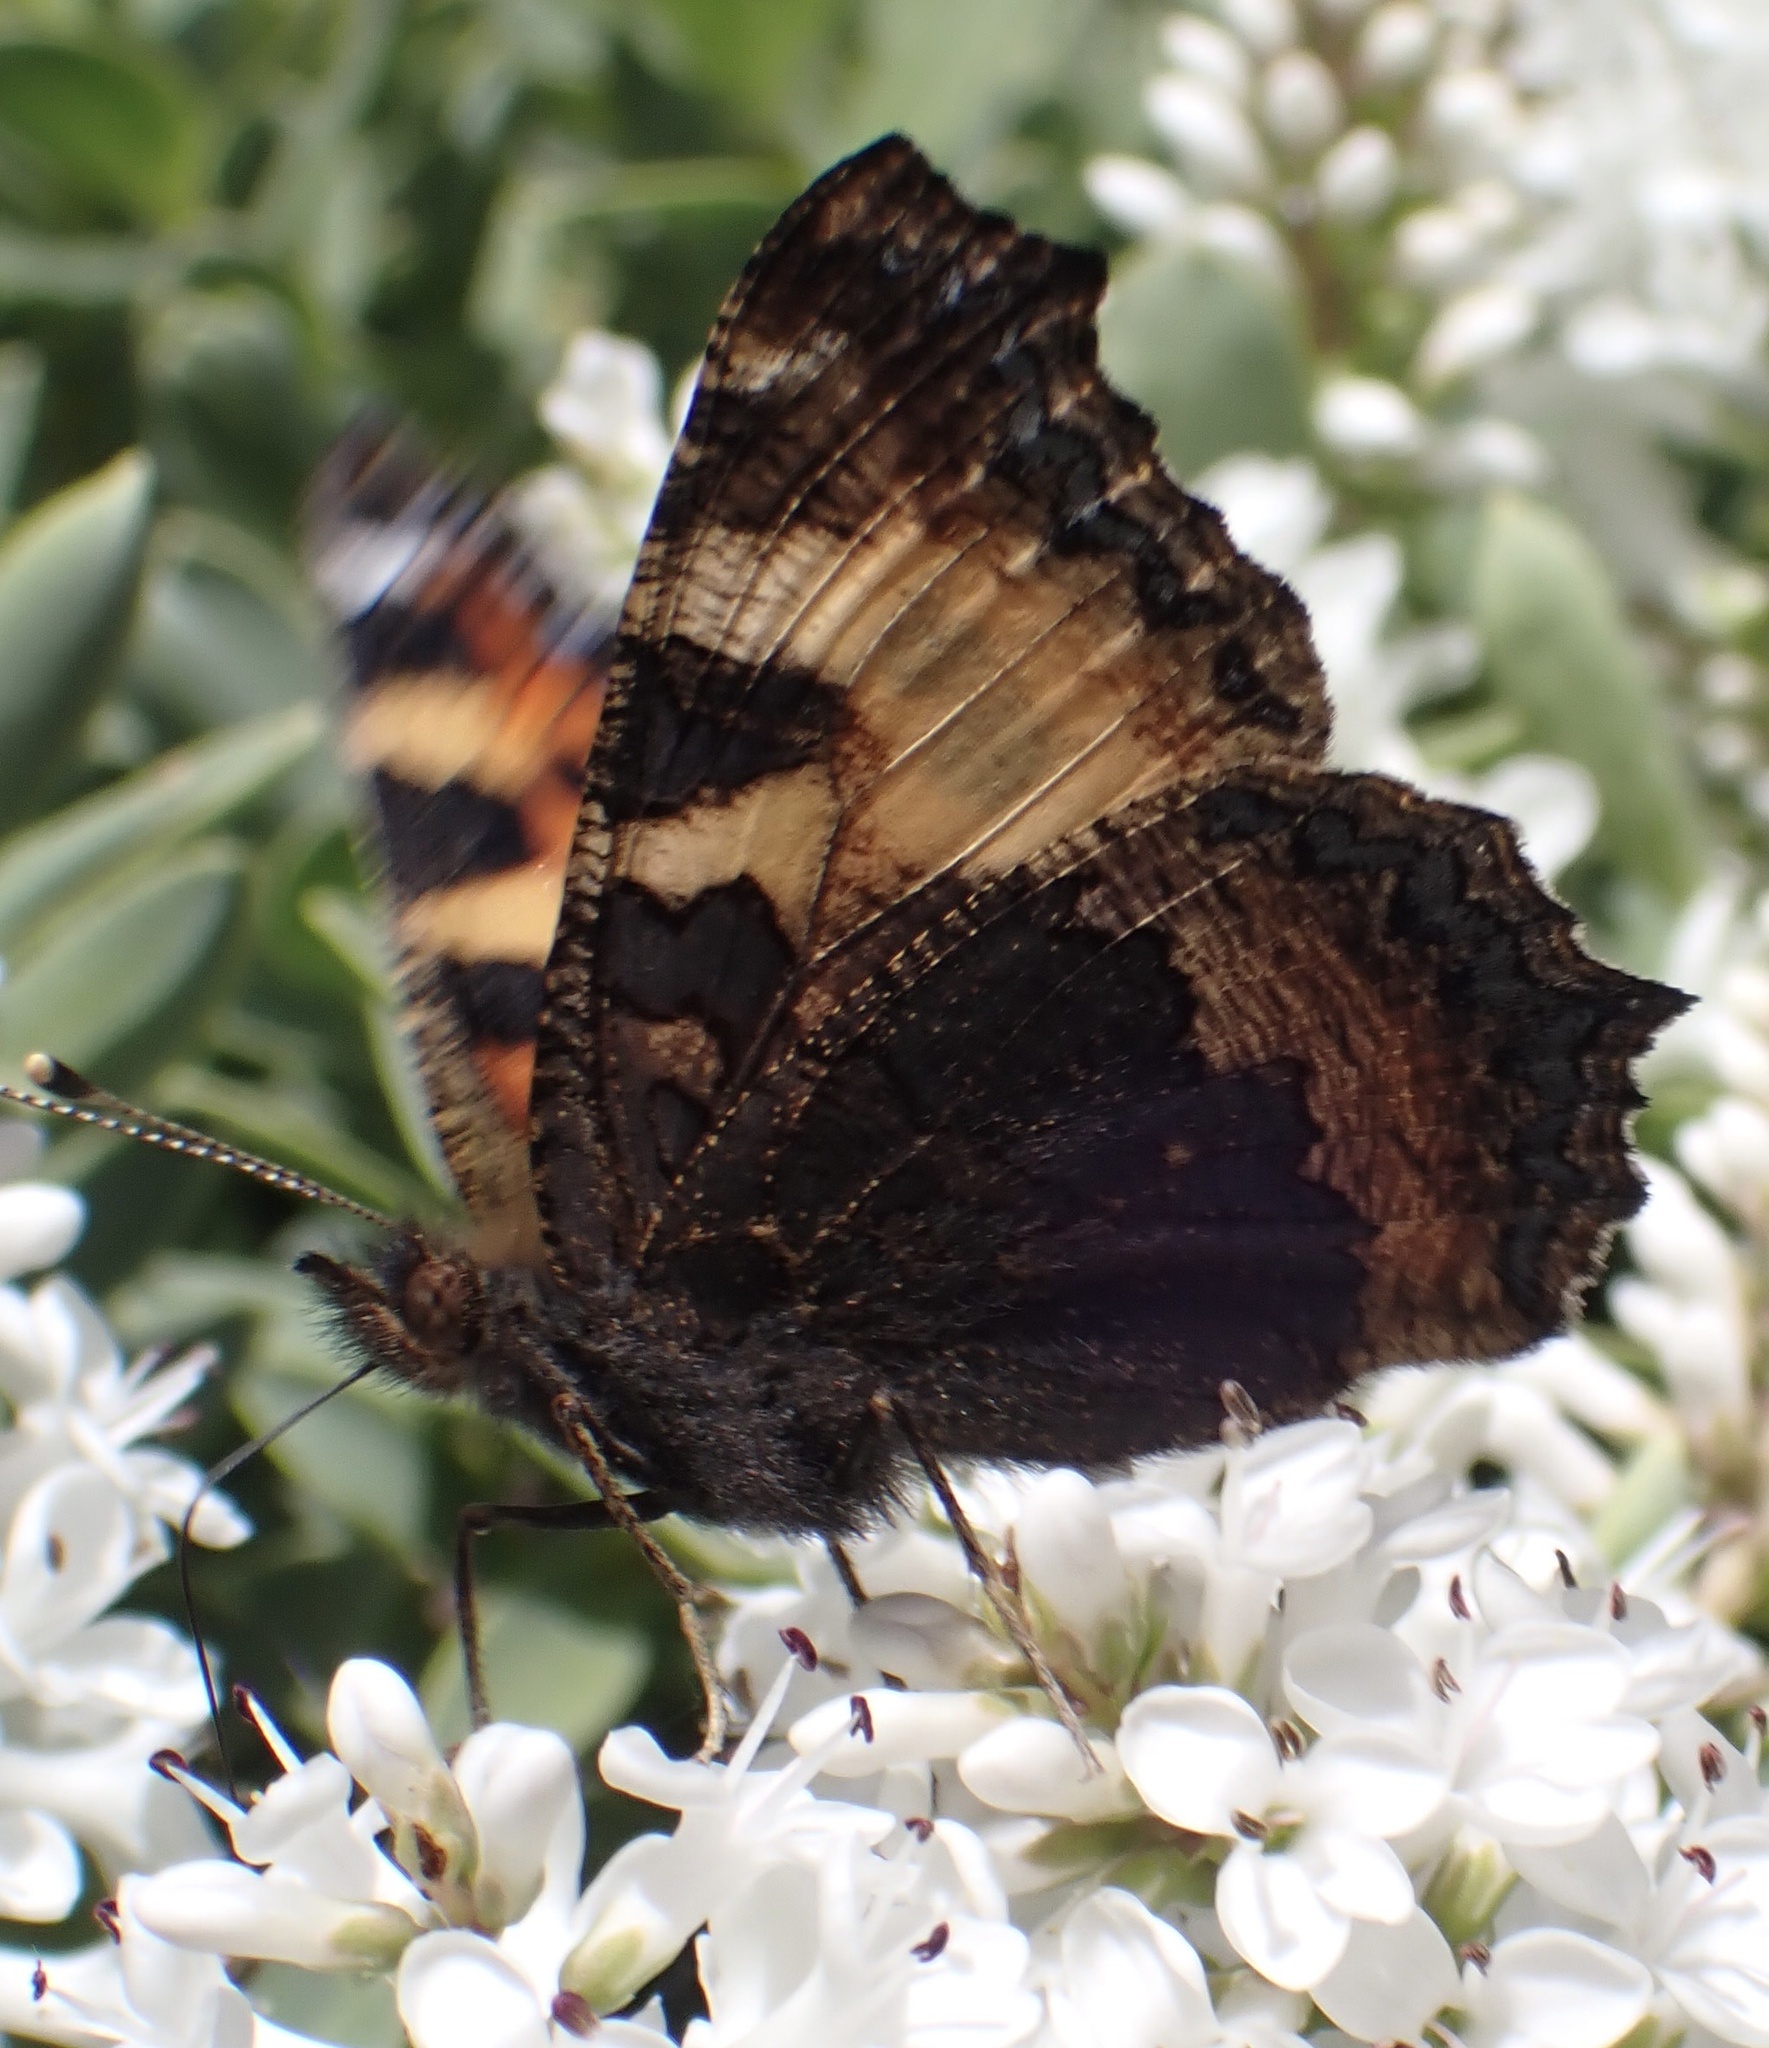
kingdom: Animalia
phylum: Arthropoda
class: Insecta
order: Lepidoptera
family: Nymphalidae
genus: Aglais
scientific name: Aglais urticae
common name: Small tortoiseshell
